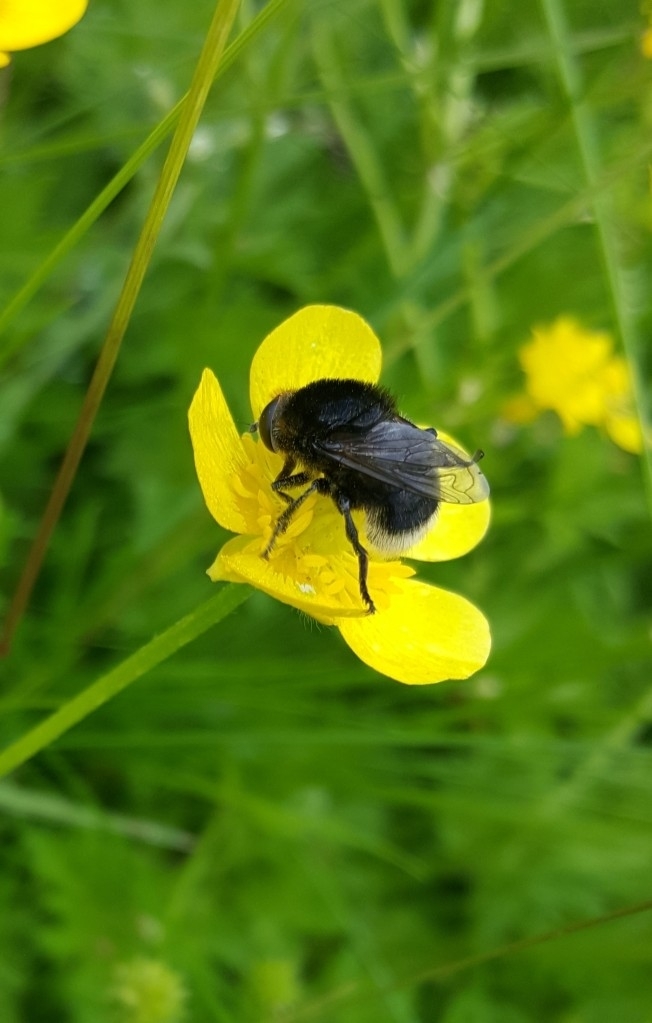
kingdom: Animalia
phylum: Arthropoda
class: Insecta
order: Diptera
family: Syrphidae
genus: Merodon
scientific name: Merodon equestris
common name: Greater bulb-fly
